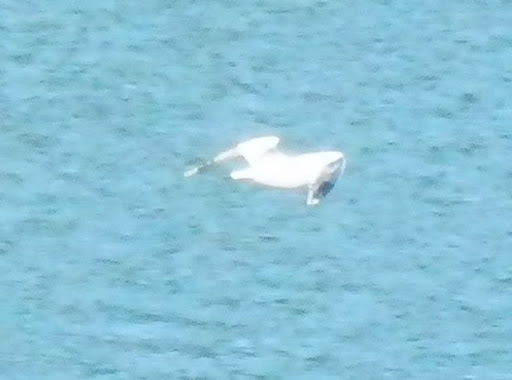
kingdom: Animalia
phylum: Chordata
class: Aves
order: Charadriiformes
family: Laridae
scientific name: Laridae
